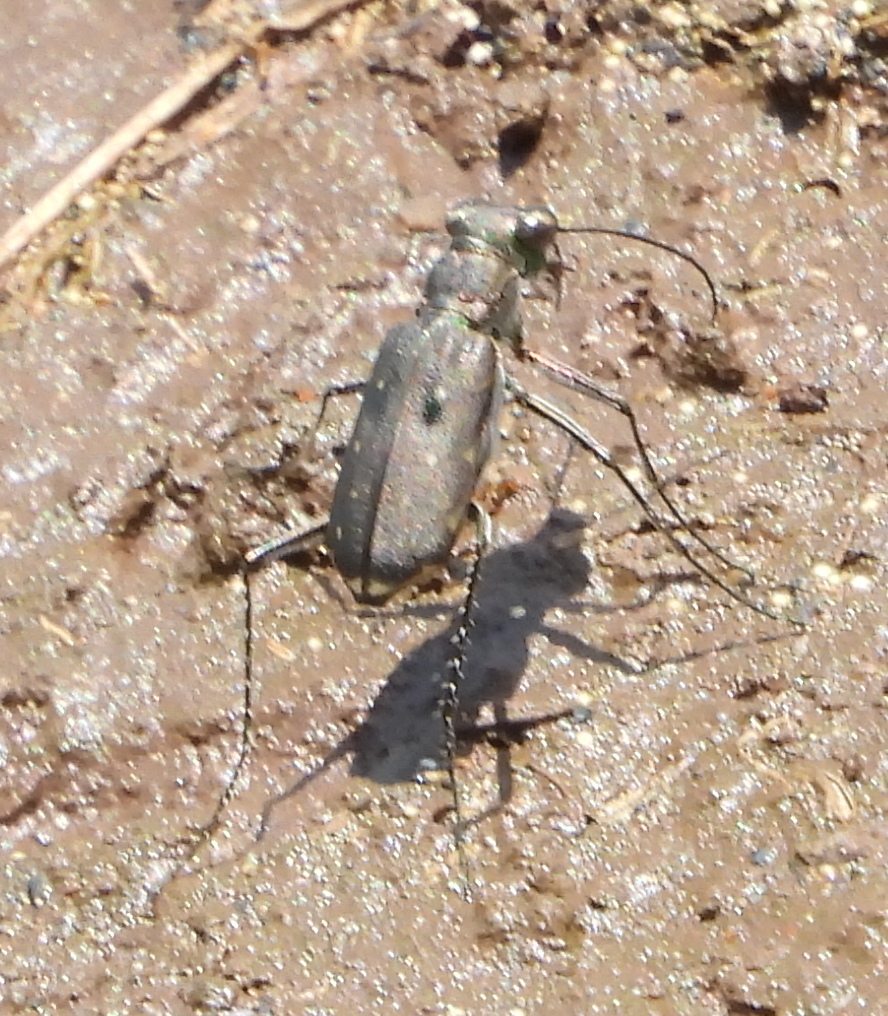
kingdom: Animalia
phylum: Arthropoda
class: Insecta
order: Coleoptera
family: Carabidae
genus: Myriochila
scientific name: Myriochila melancholica
